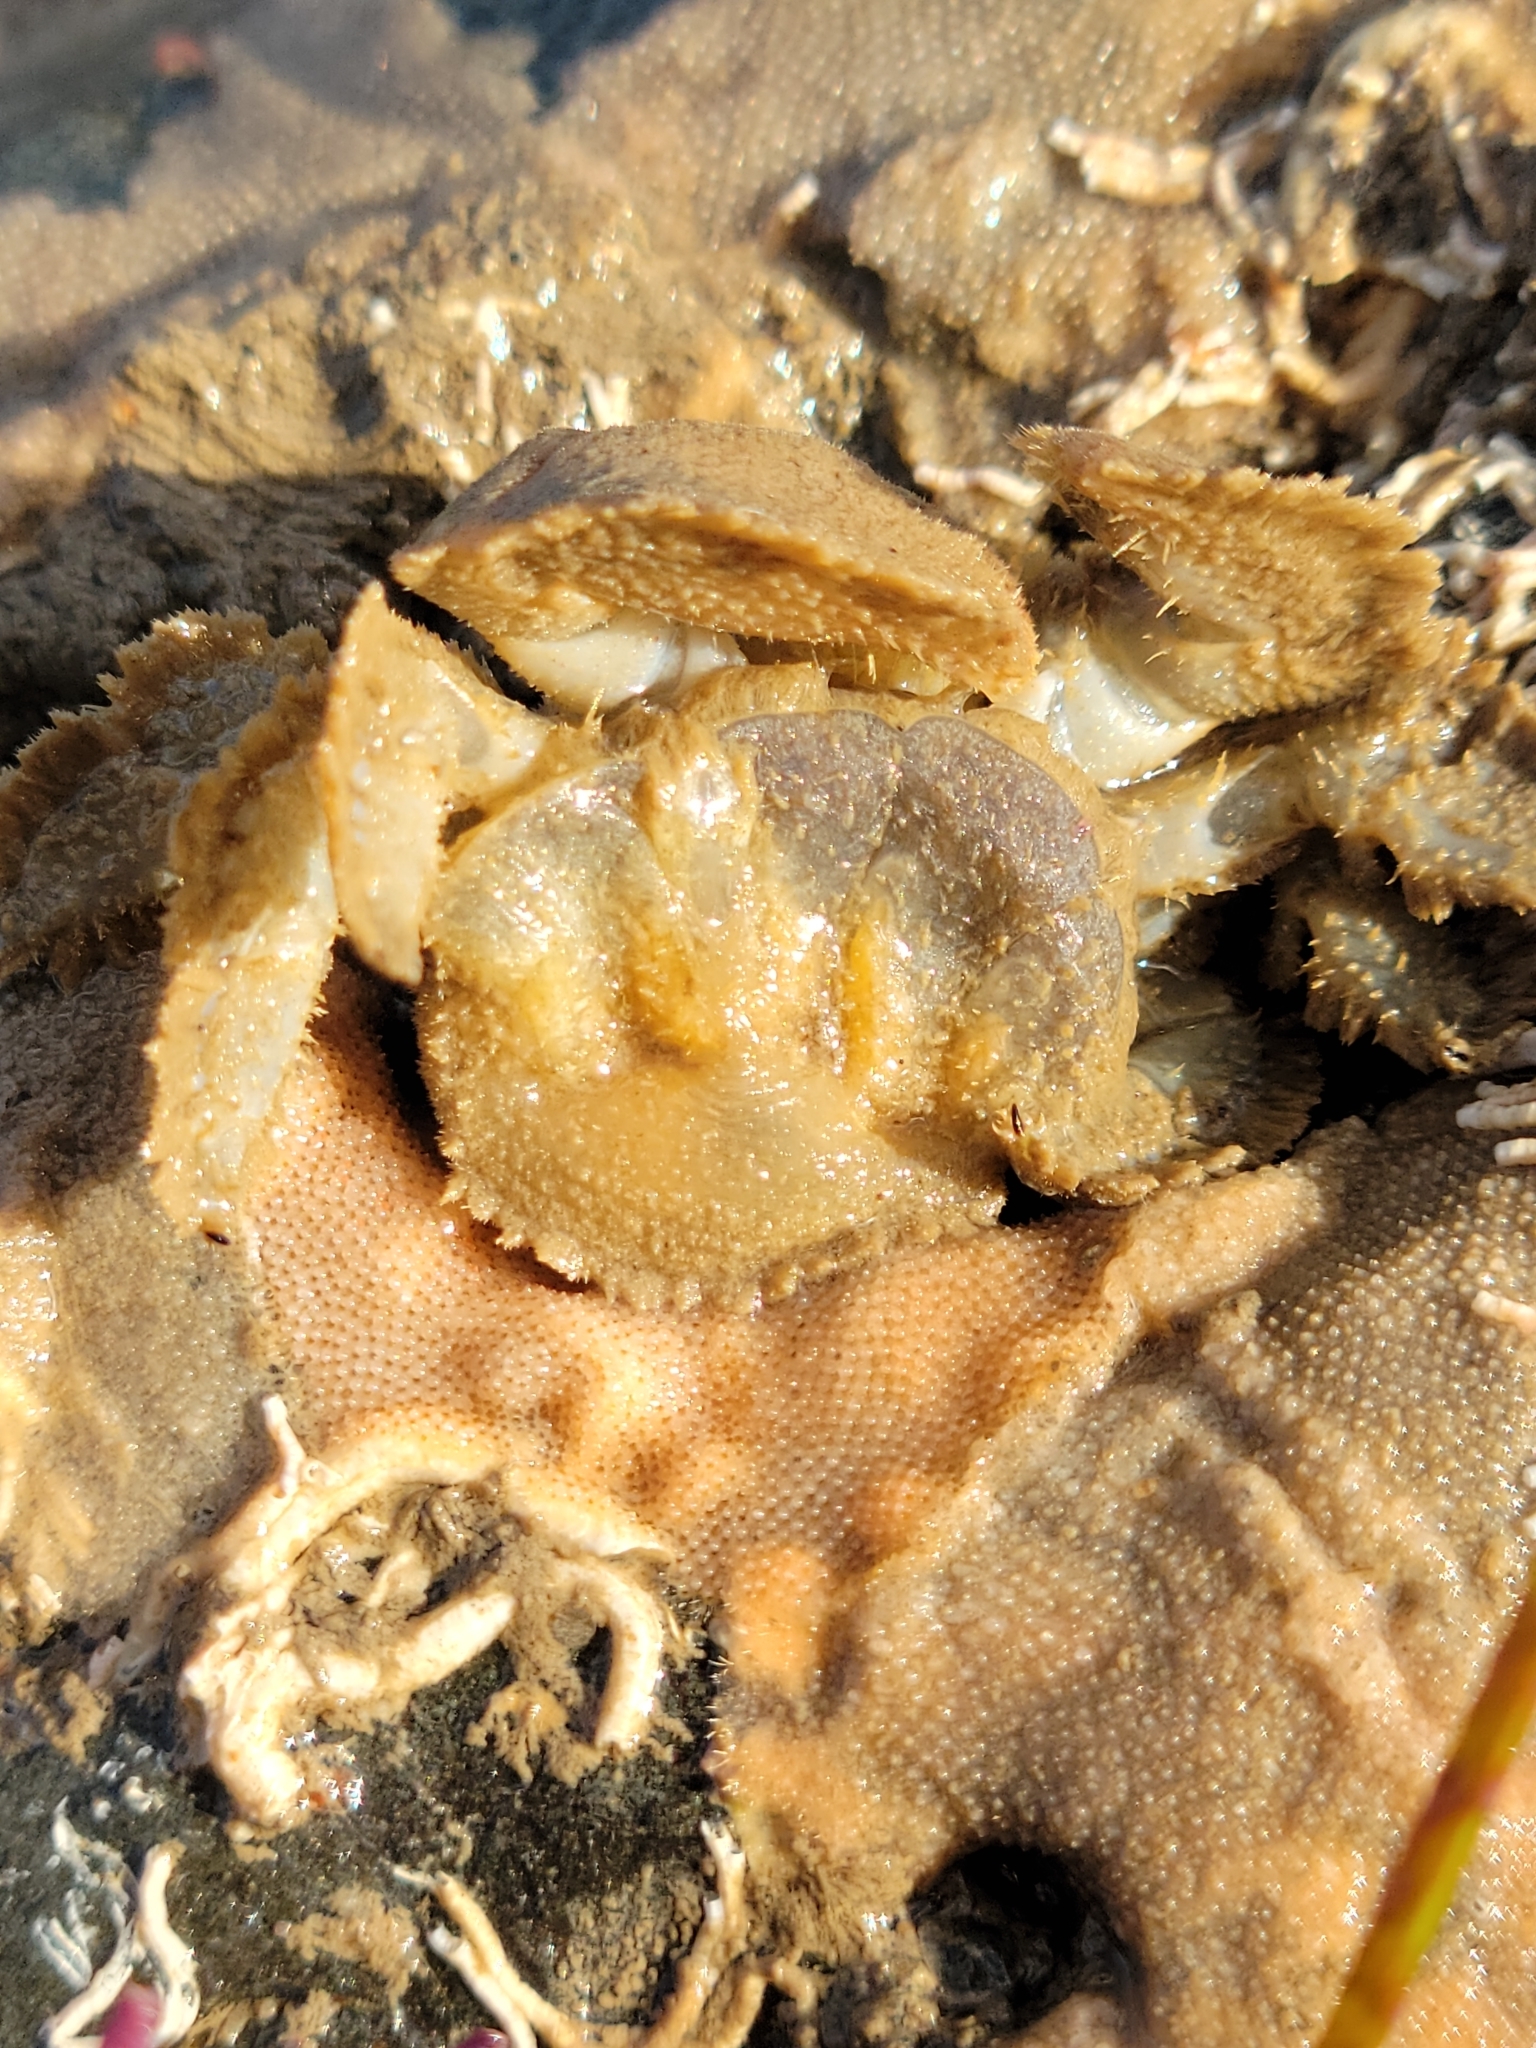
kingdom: Animalia
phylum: Arthropoda
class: Malacostraca
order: Decapoda
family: Hapalogastridae
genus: Hapalogaster
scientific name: Hapalogaster cavicauda
